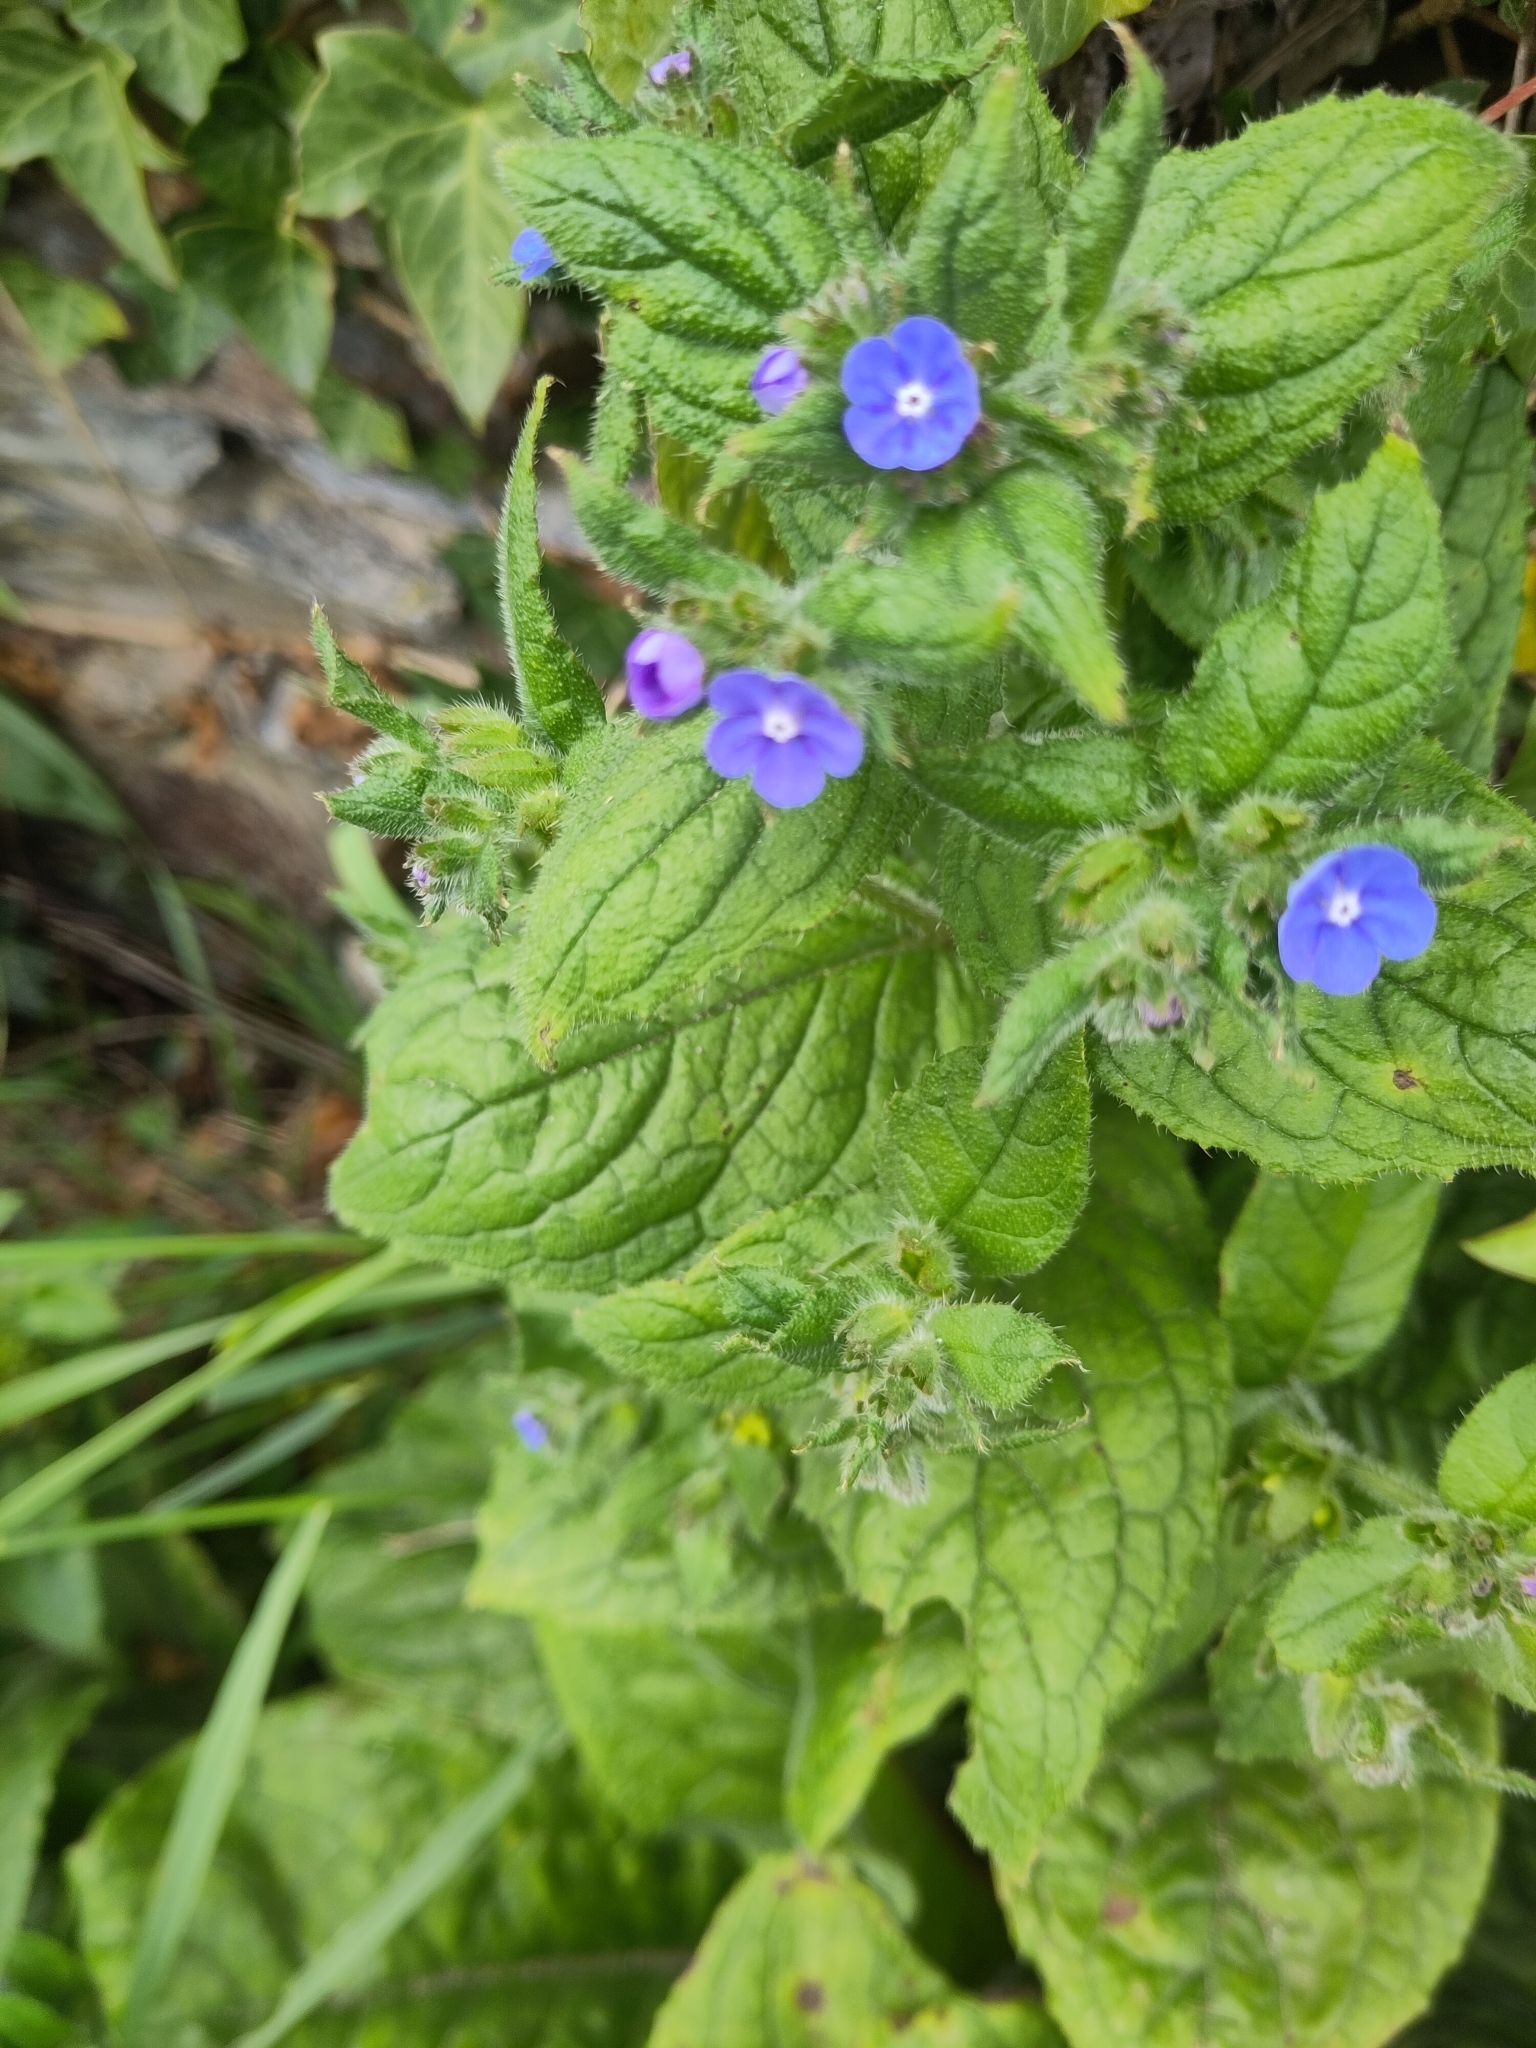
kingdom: Plantae
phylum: Tracheophyta
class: Magnoliopsida
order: Boraginales
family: Boraginaceae
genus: Pentaglottis
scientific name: Pentaglottis sempervirens
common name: Green alkanet
